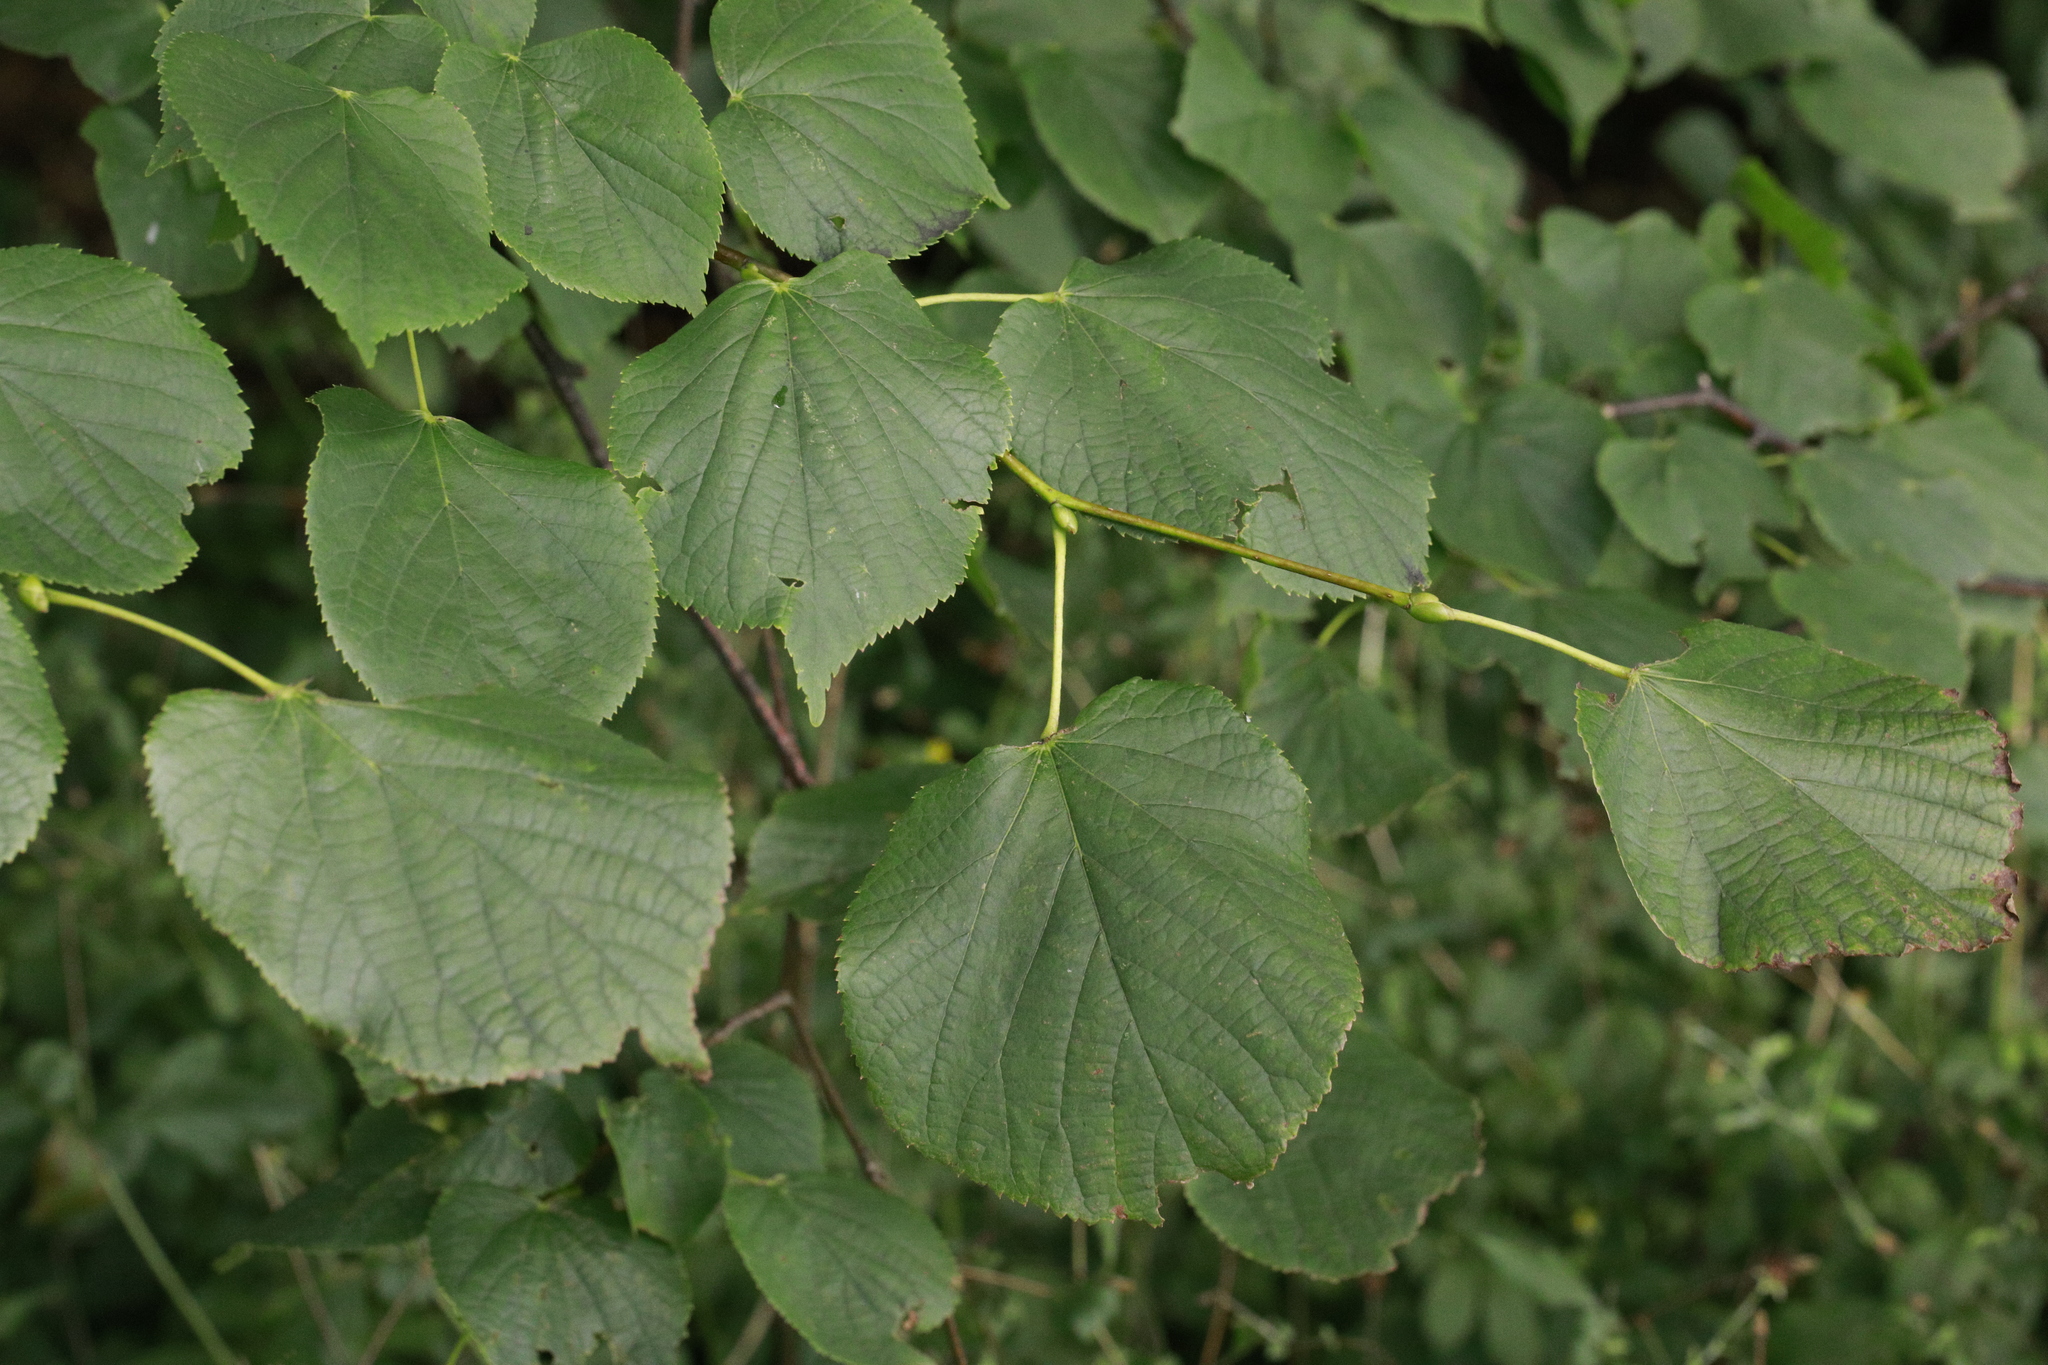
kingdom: Plantae
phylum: Tracheophyta
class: Magnoliopsida
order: Malvales
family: Malvaceae
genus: Tilia
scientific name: Tilia europaea
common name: European linden
